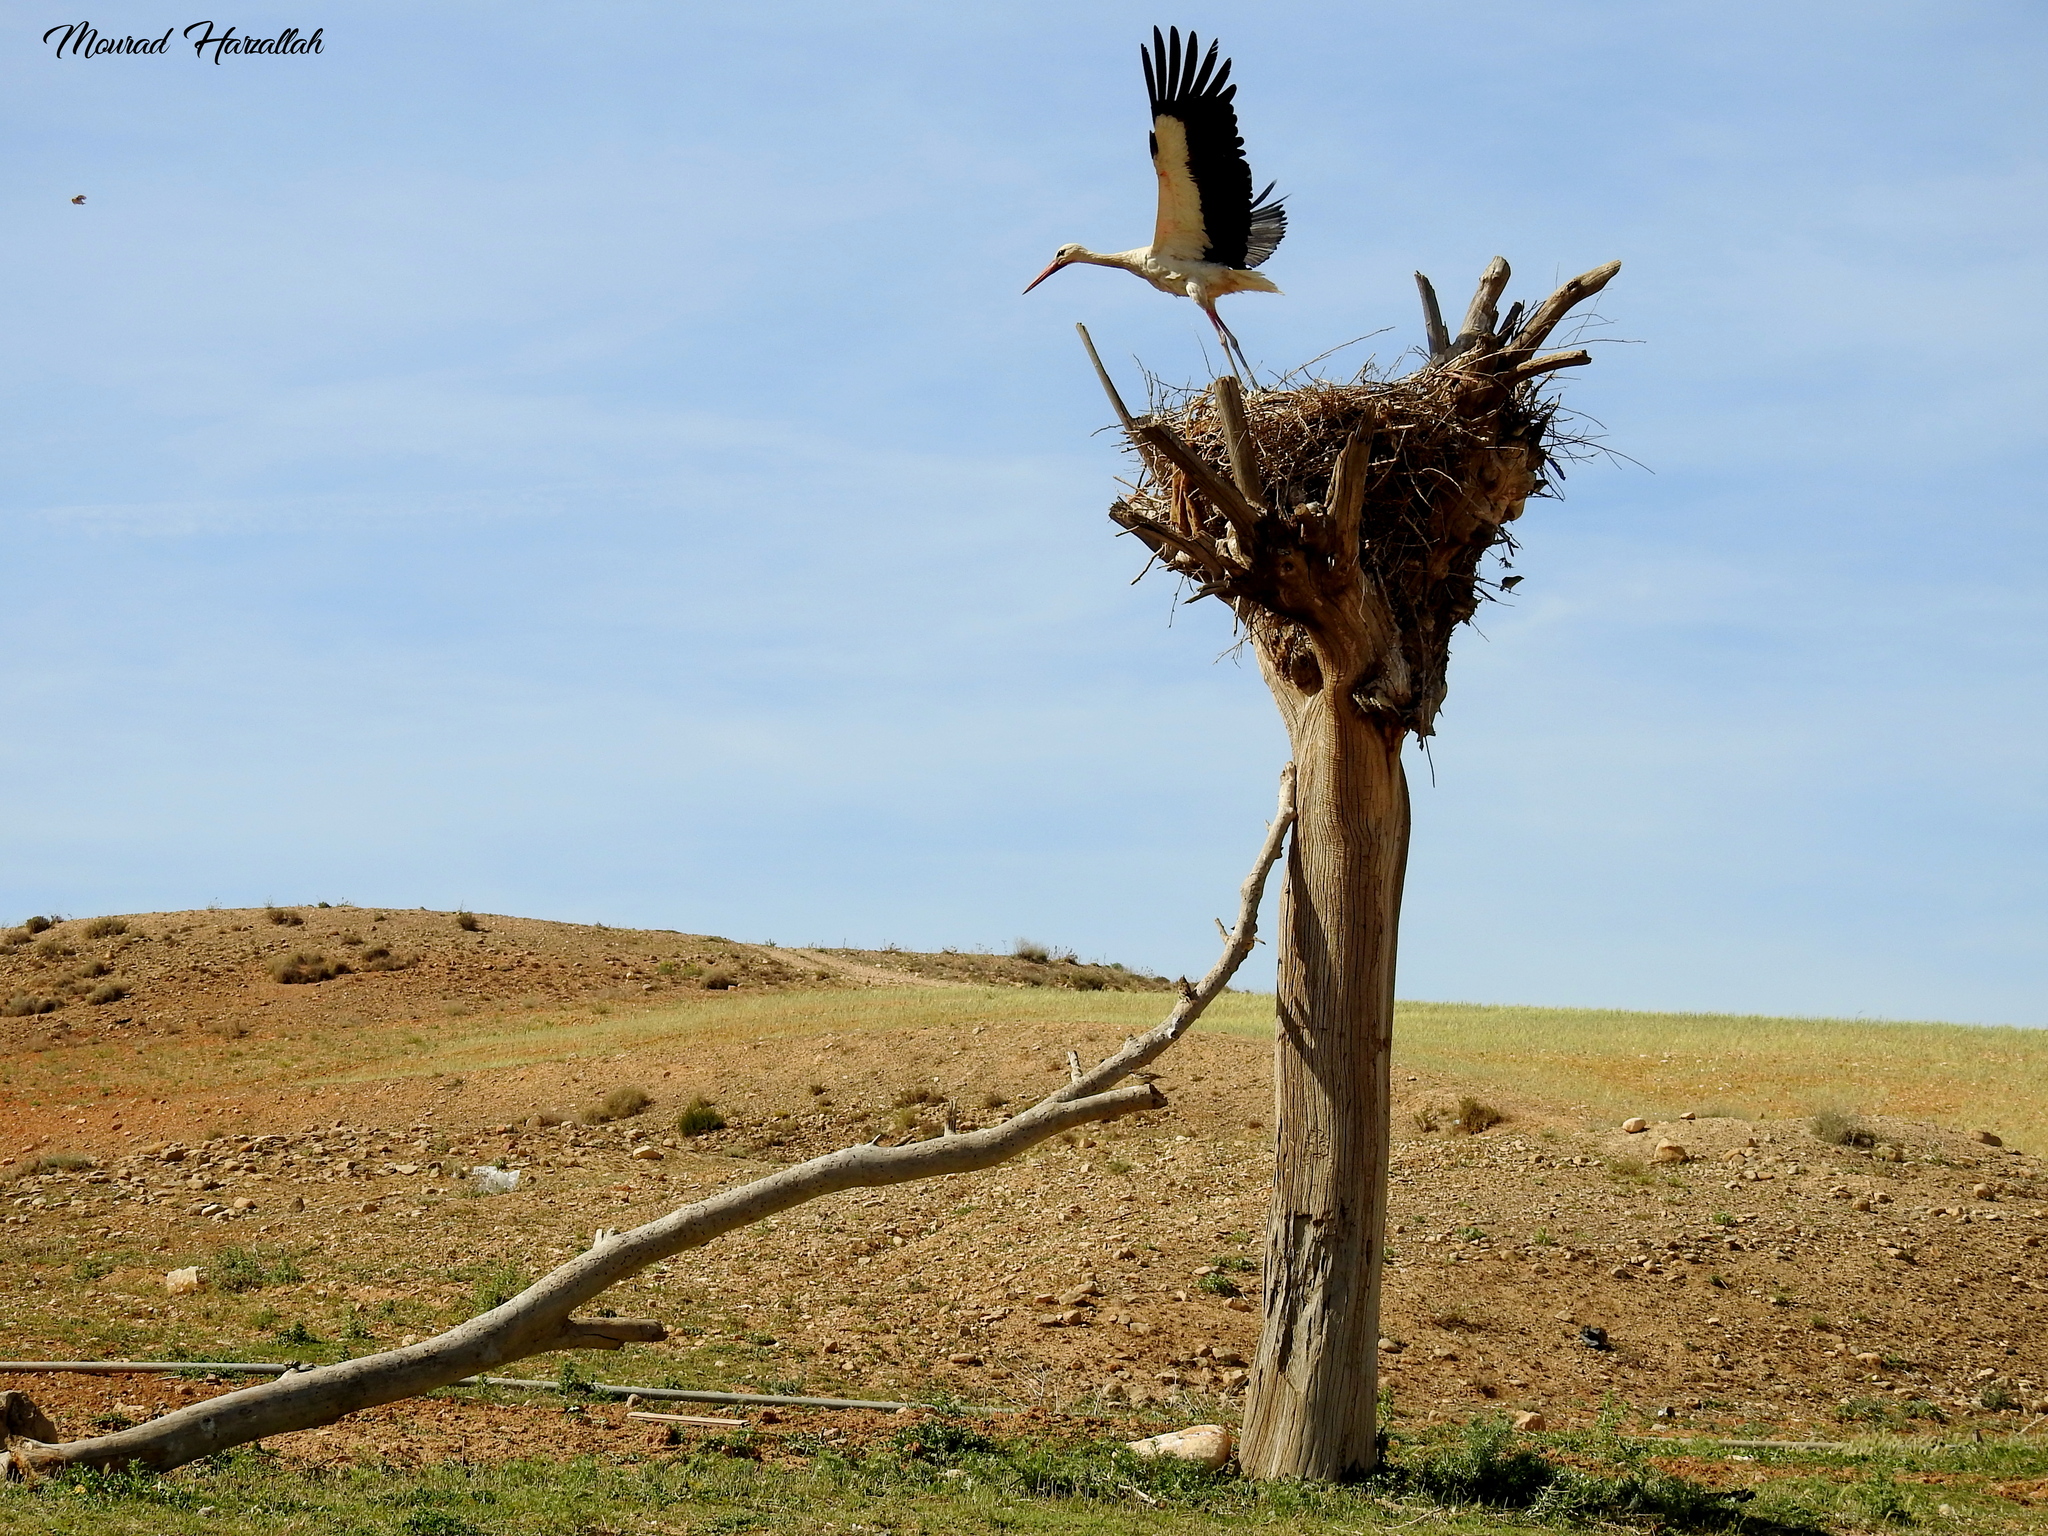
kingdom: Animalia
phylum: Chordata
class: Aves
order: Ciconiiformes
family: Ciconiidae
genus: Ciconia
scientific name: Ciconia ciconia
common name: White stork
